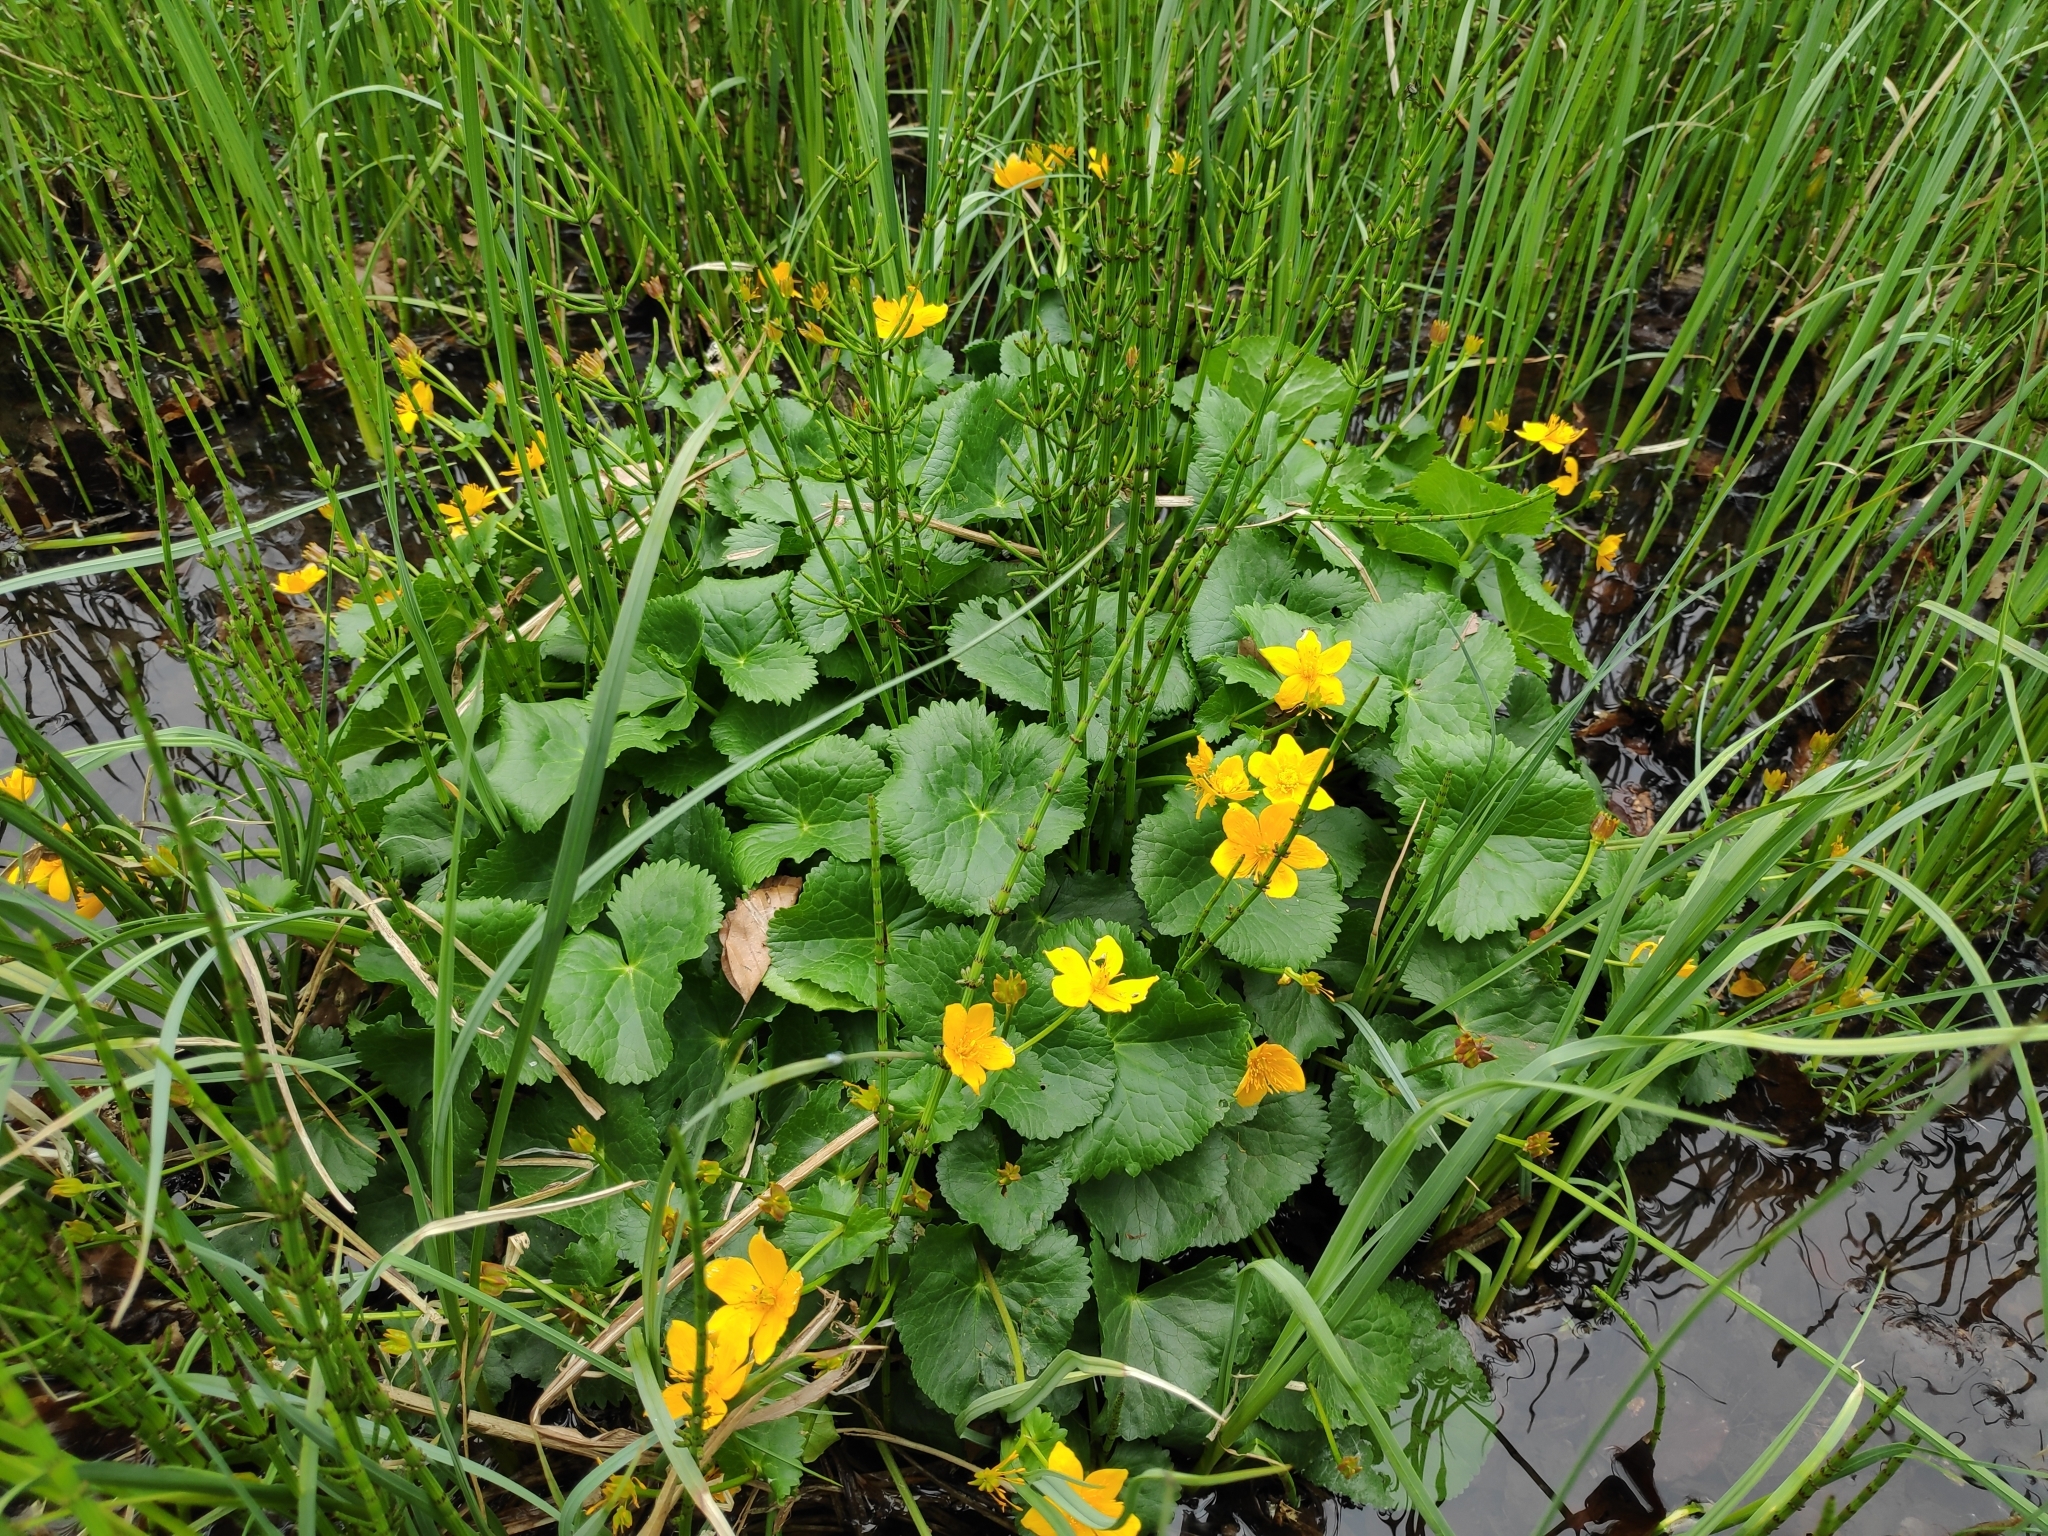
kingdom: Plantae
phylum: Tracheophyta
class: Magnoliopsida
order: Ranunculales
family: Ranunculaceae
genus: Caltha
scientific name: Caltha palustris
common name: Marsh marigold
